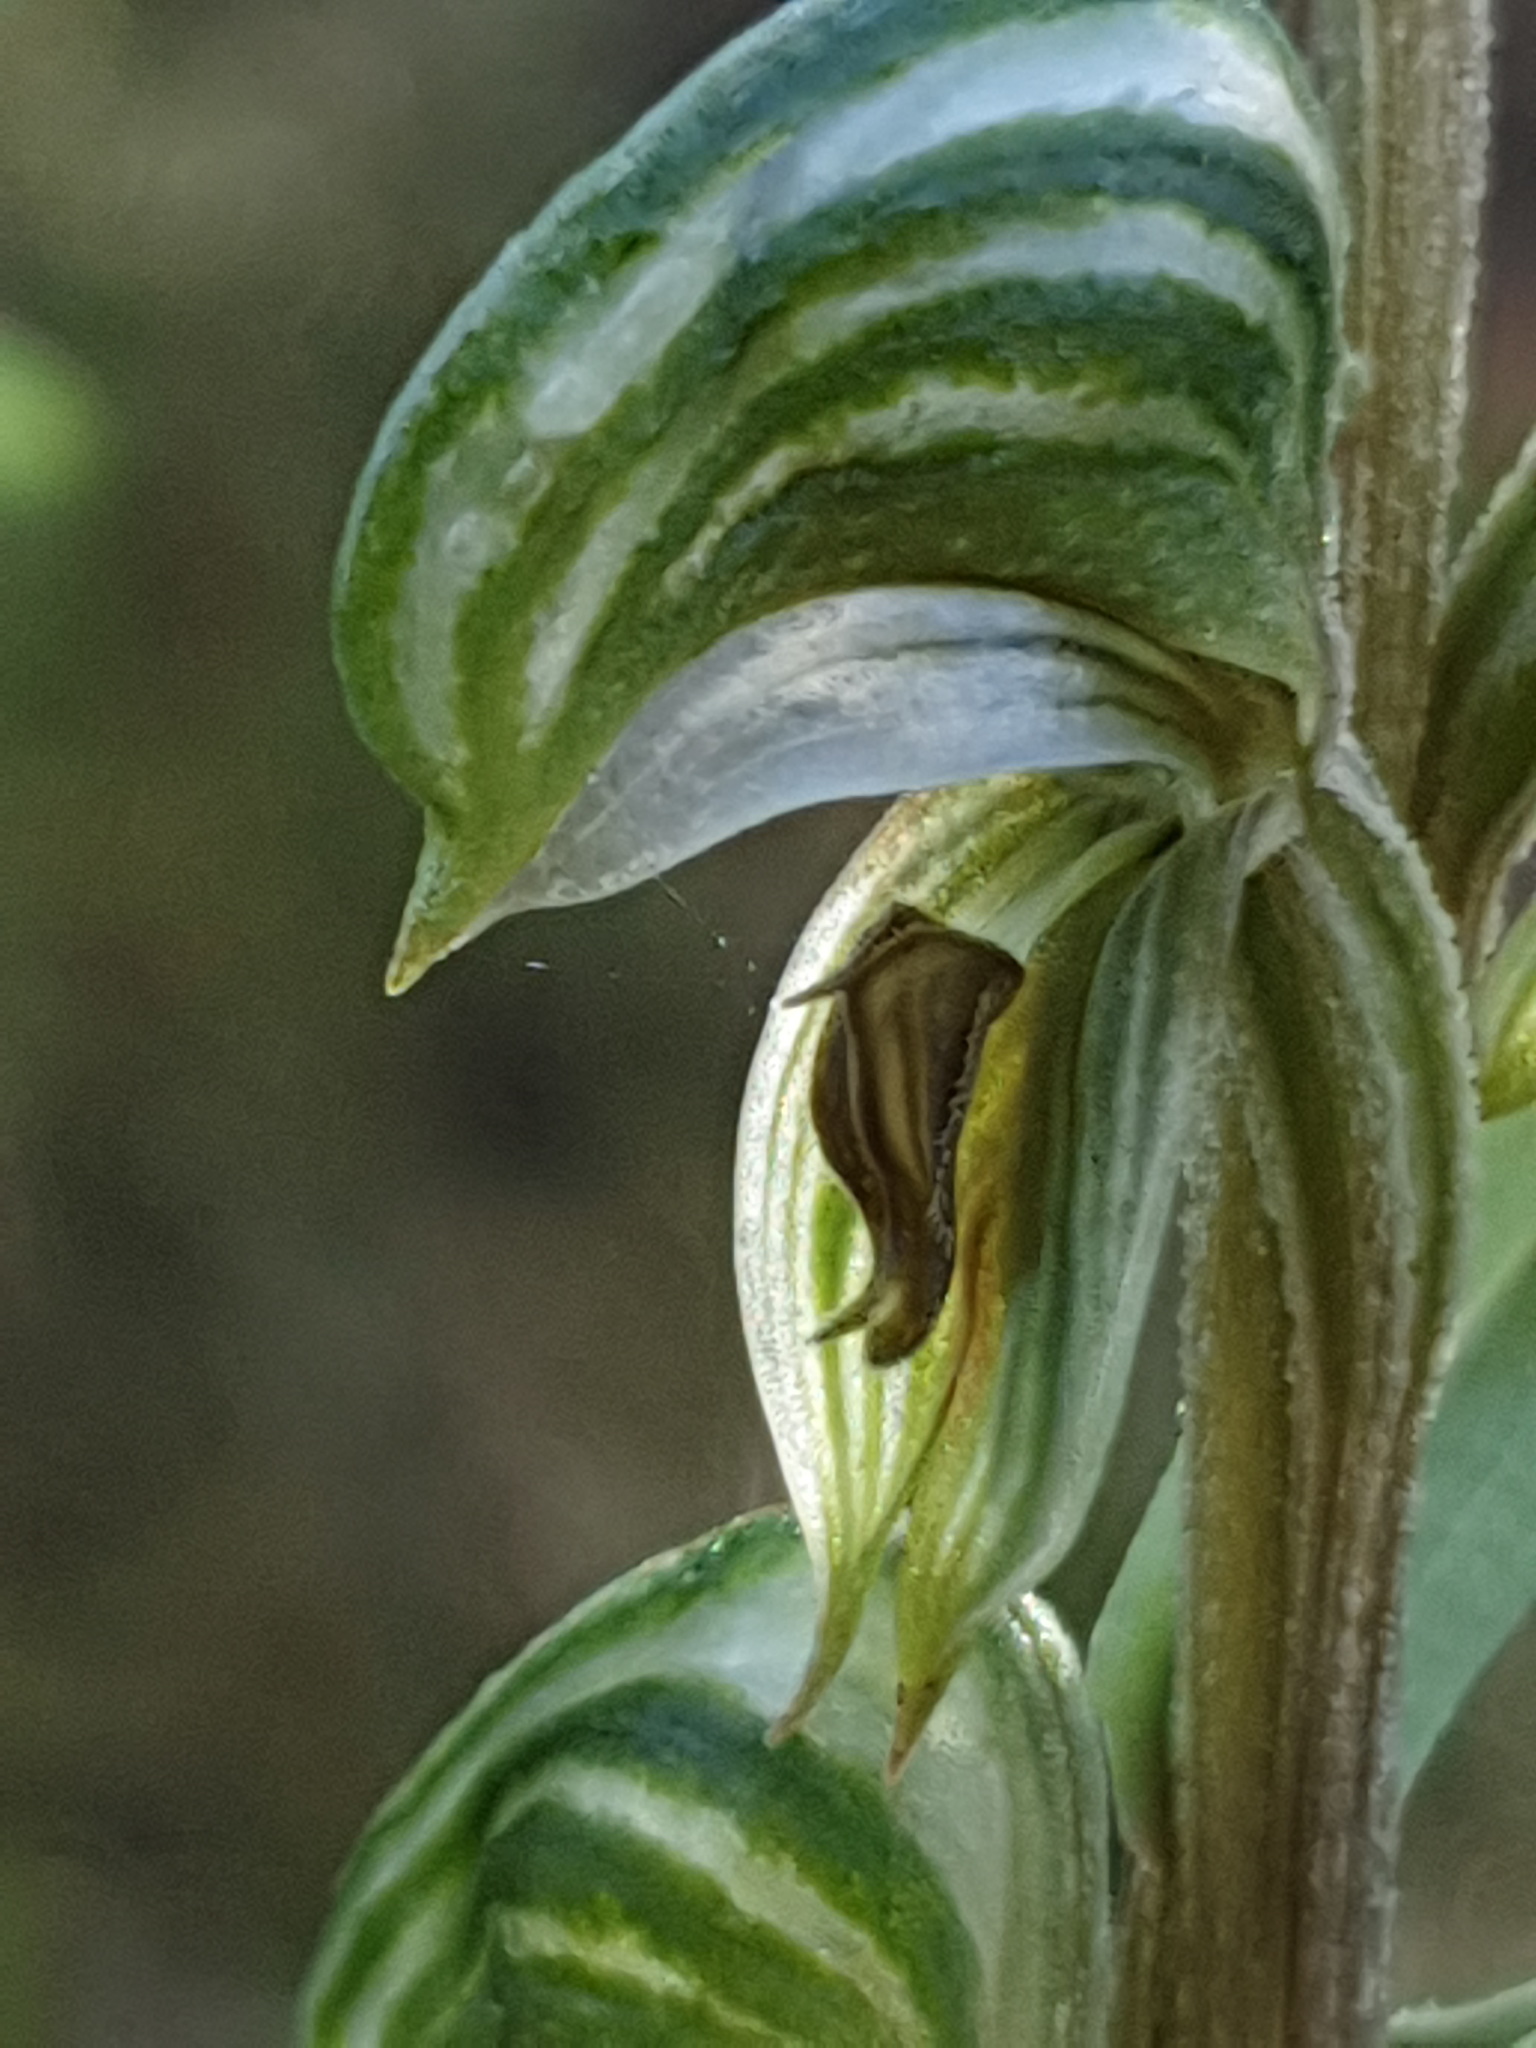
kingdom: Plantae
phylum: Tracheophyta
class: Liliopsida
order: Asparagales
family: Orchidaceae
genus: Pterostylis
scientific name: Pterostylis vittata
